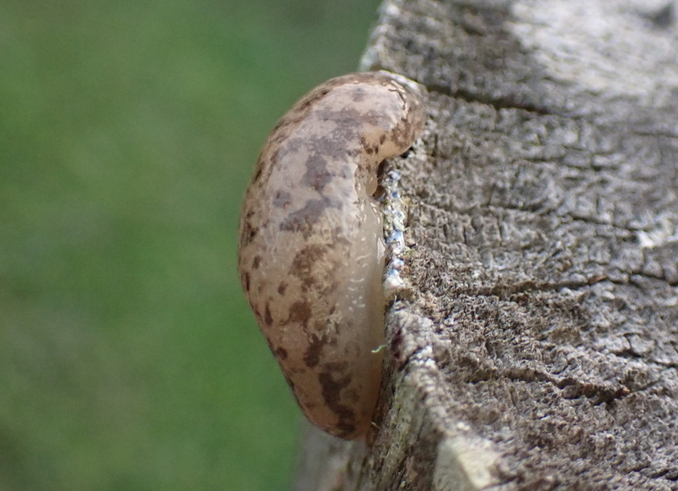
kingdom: Animalia
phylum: Mollusca
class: Gastropoda
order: Stylommatophora
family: Philomycidae
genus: Megapallifera
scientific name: Megapallifera mutabilis
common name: Changeable mantleslug
